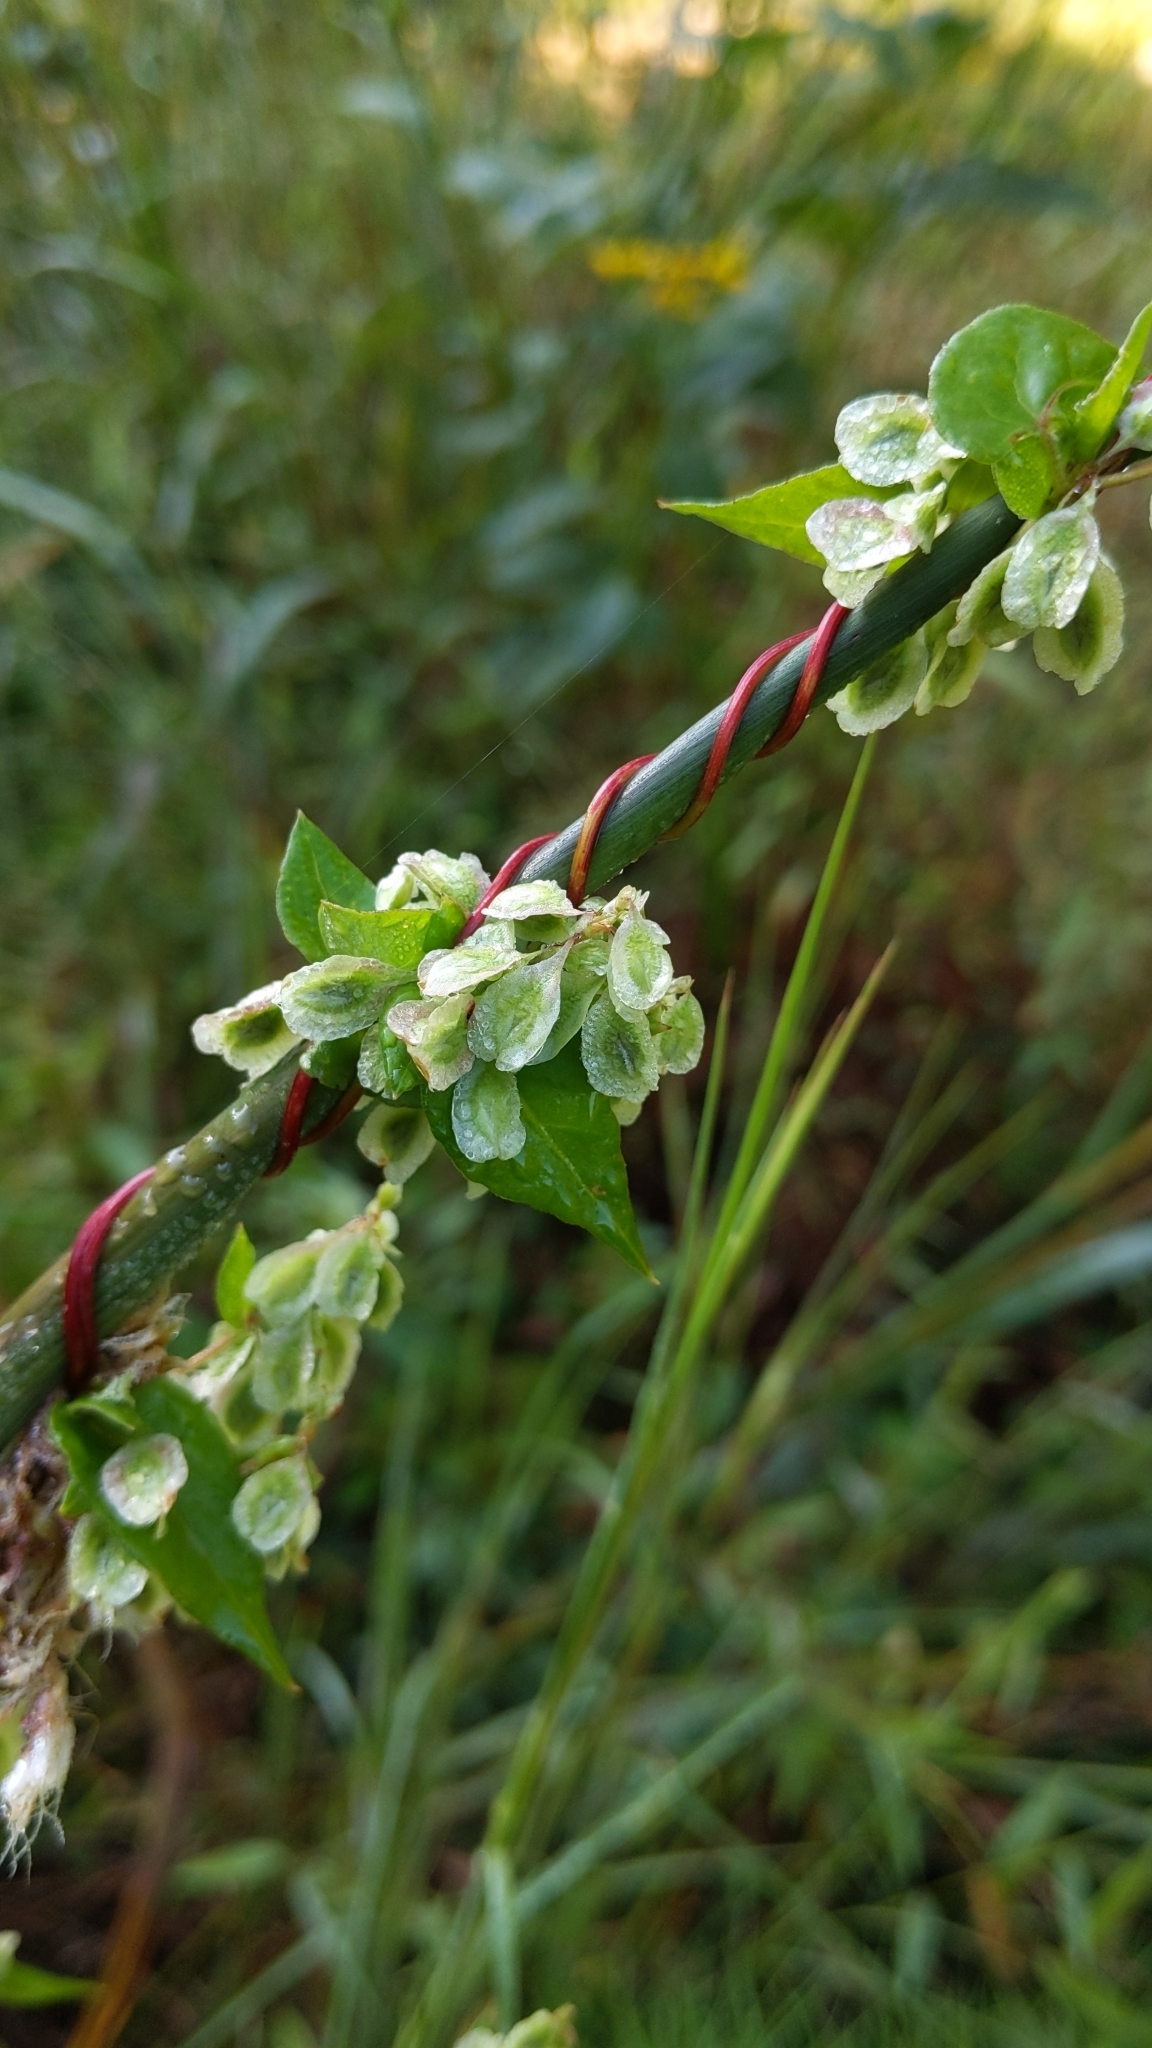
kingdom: Plantae
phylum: Tracheophyta
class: Magnoliopsida
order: Caryophyllales
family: Polygonaceae
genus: Fallopia
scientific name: Fallopia scandens
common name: Climbing false buckwheat
